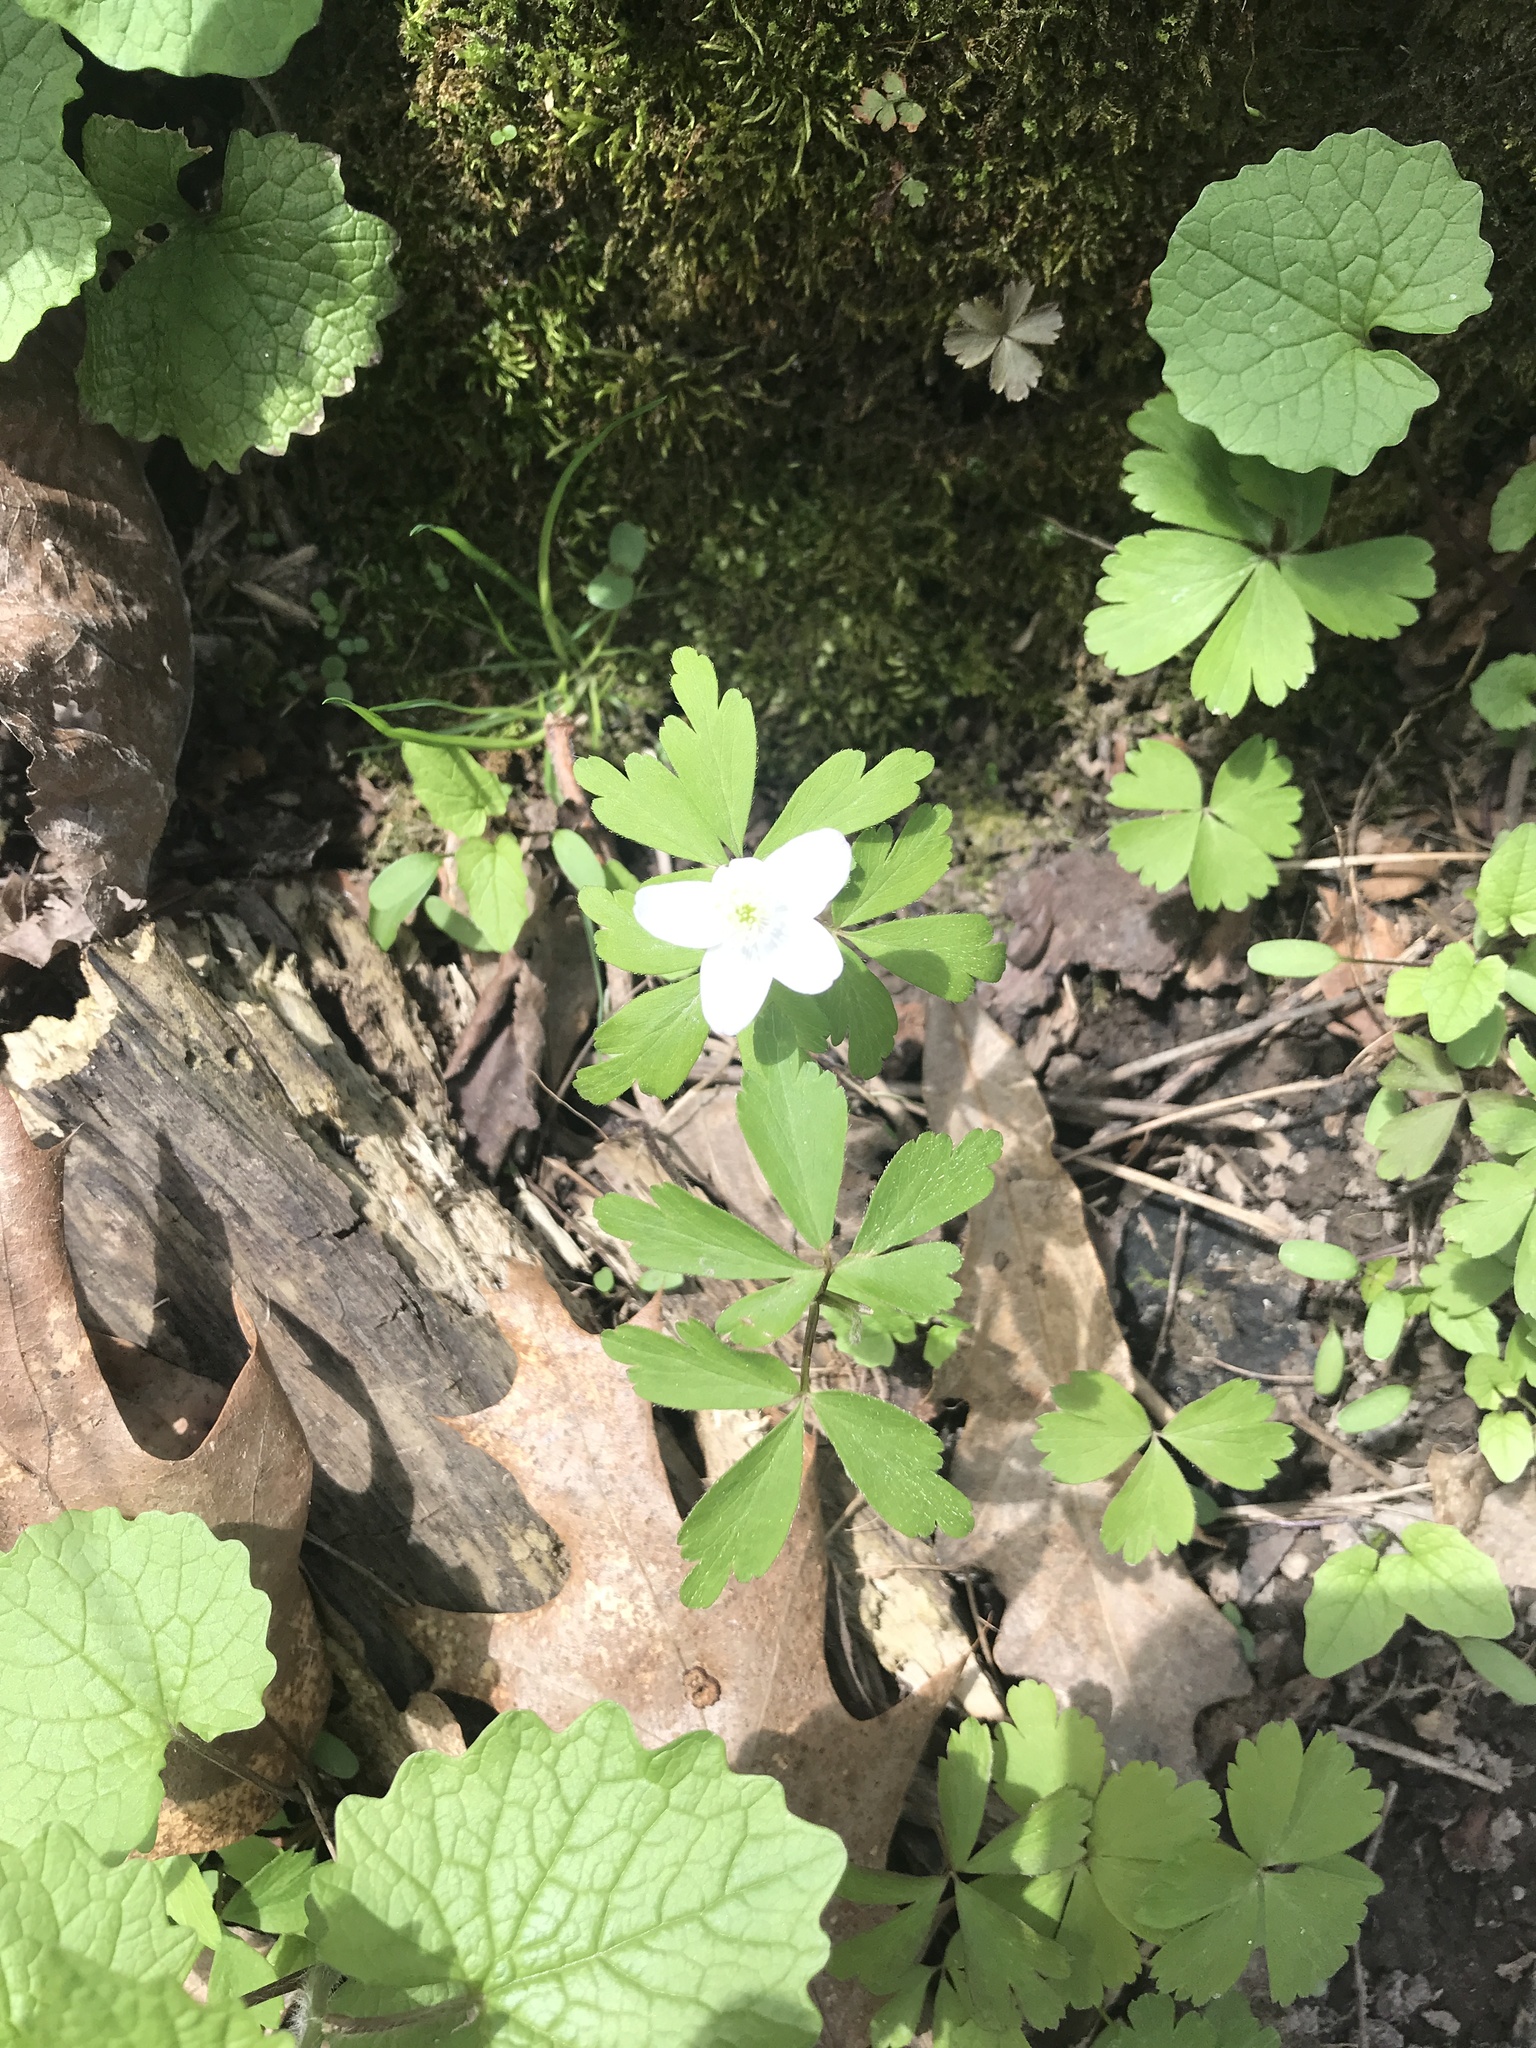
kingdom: Plantae
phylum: Tracheophyta
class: Magnoliopsida
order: Ranunculales
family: Ranunculaceae
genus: Anemone
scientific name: Anemone quinquefolia
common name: Wood anemone
